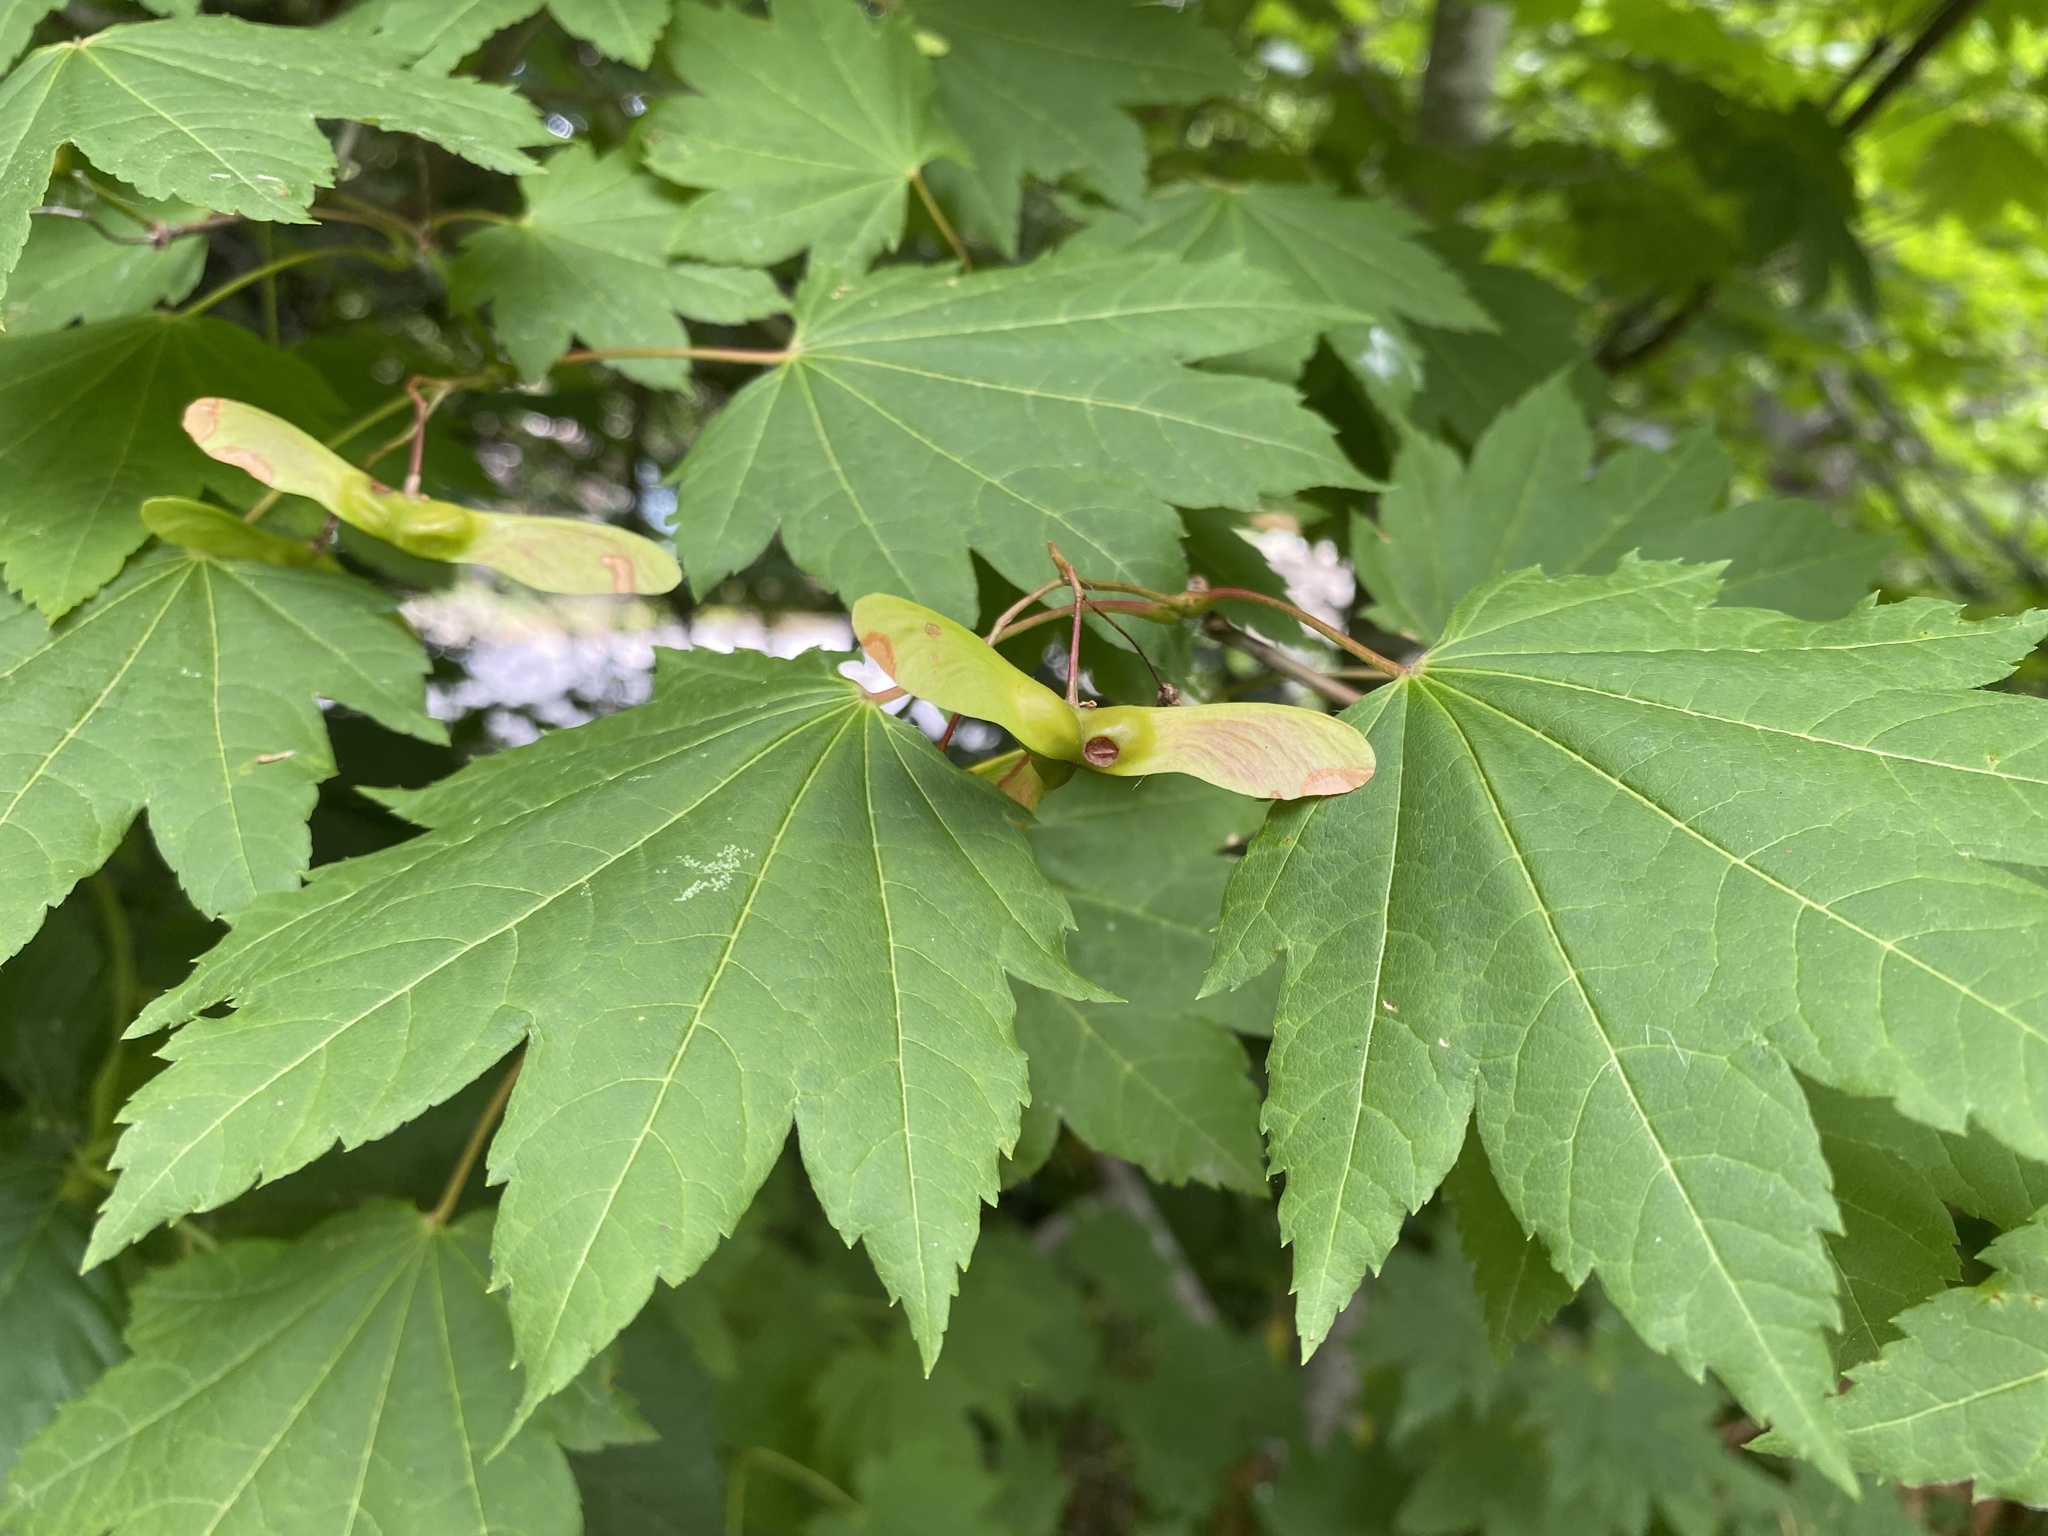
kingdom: Plantae
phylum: Tracheophyta
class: Magnoliopsida
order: Sapindales
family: Sapindaceae
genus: Acer
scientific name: Acer circinatum
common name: Vine maple
